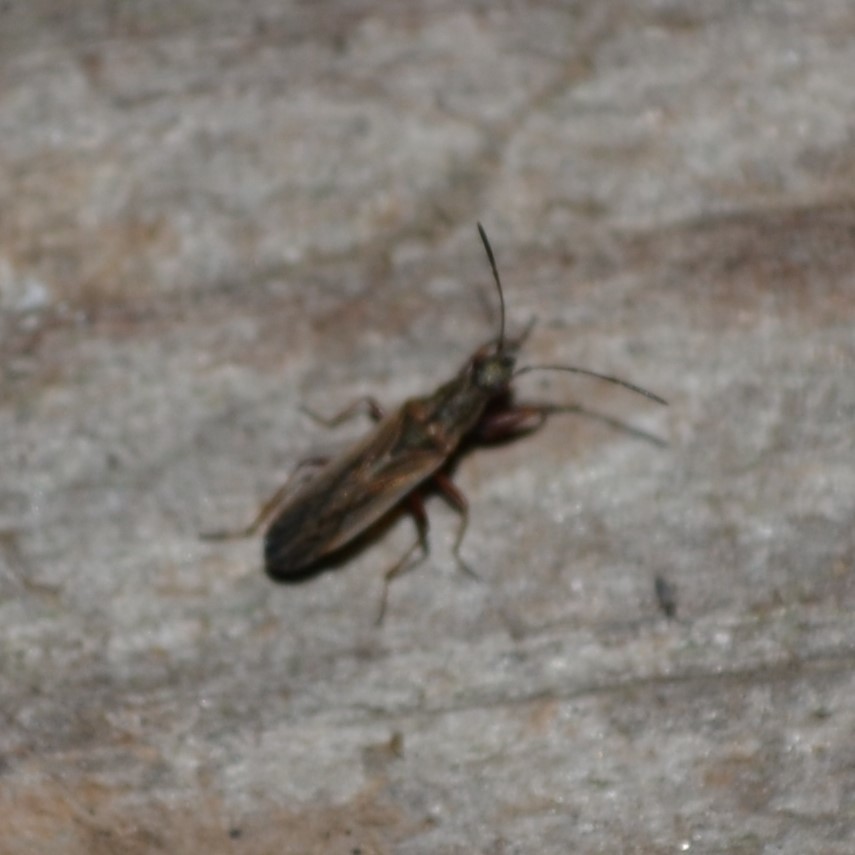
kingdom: Animalia
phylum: Arthropoda
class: Insecta
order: Hemiptera
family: Rhyparochromidae
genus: Paromius
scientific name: Paromius longulus
